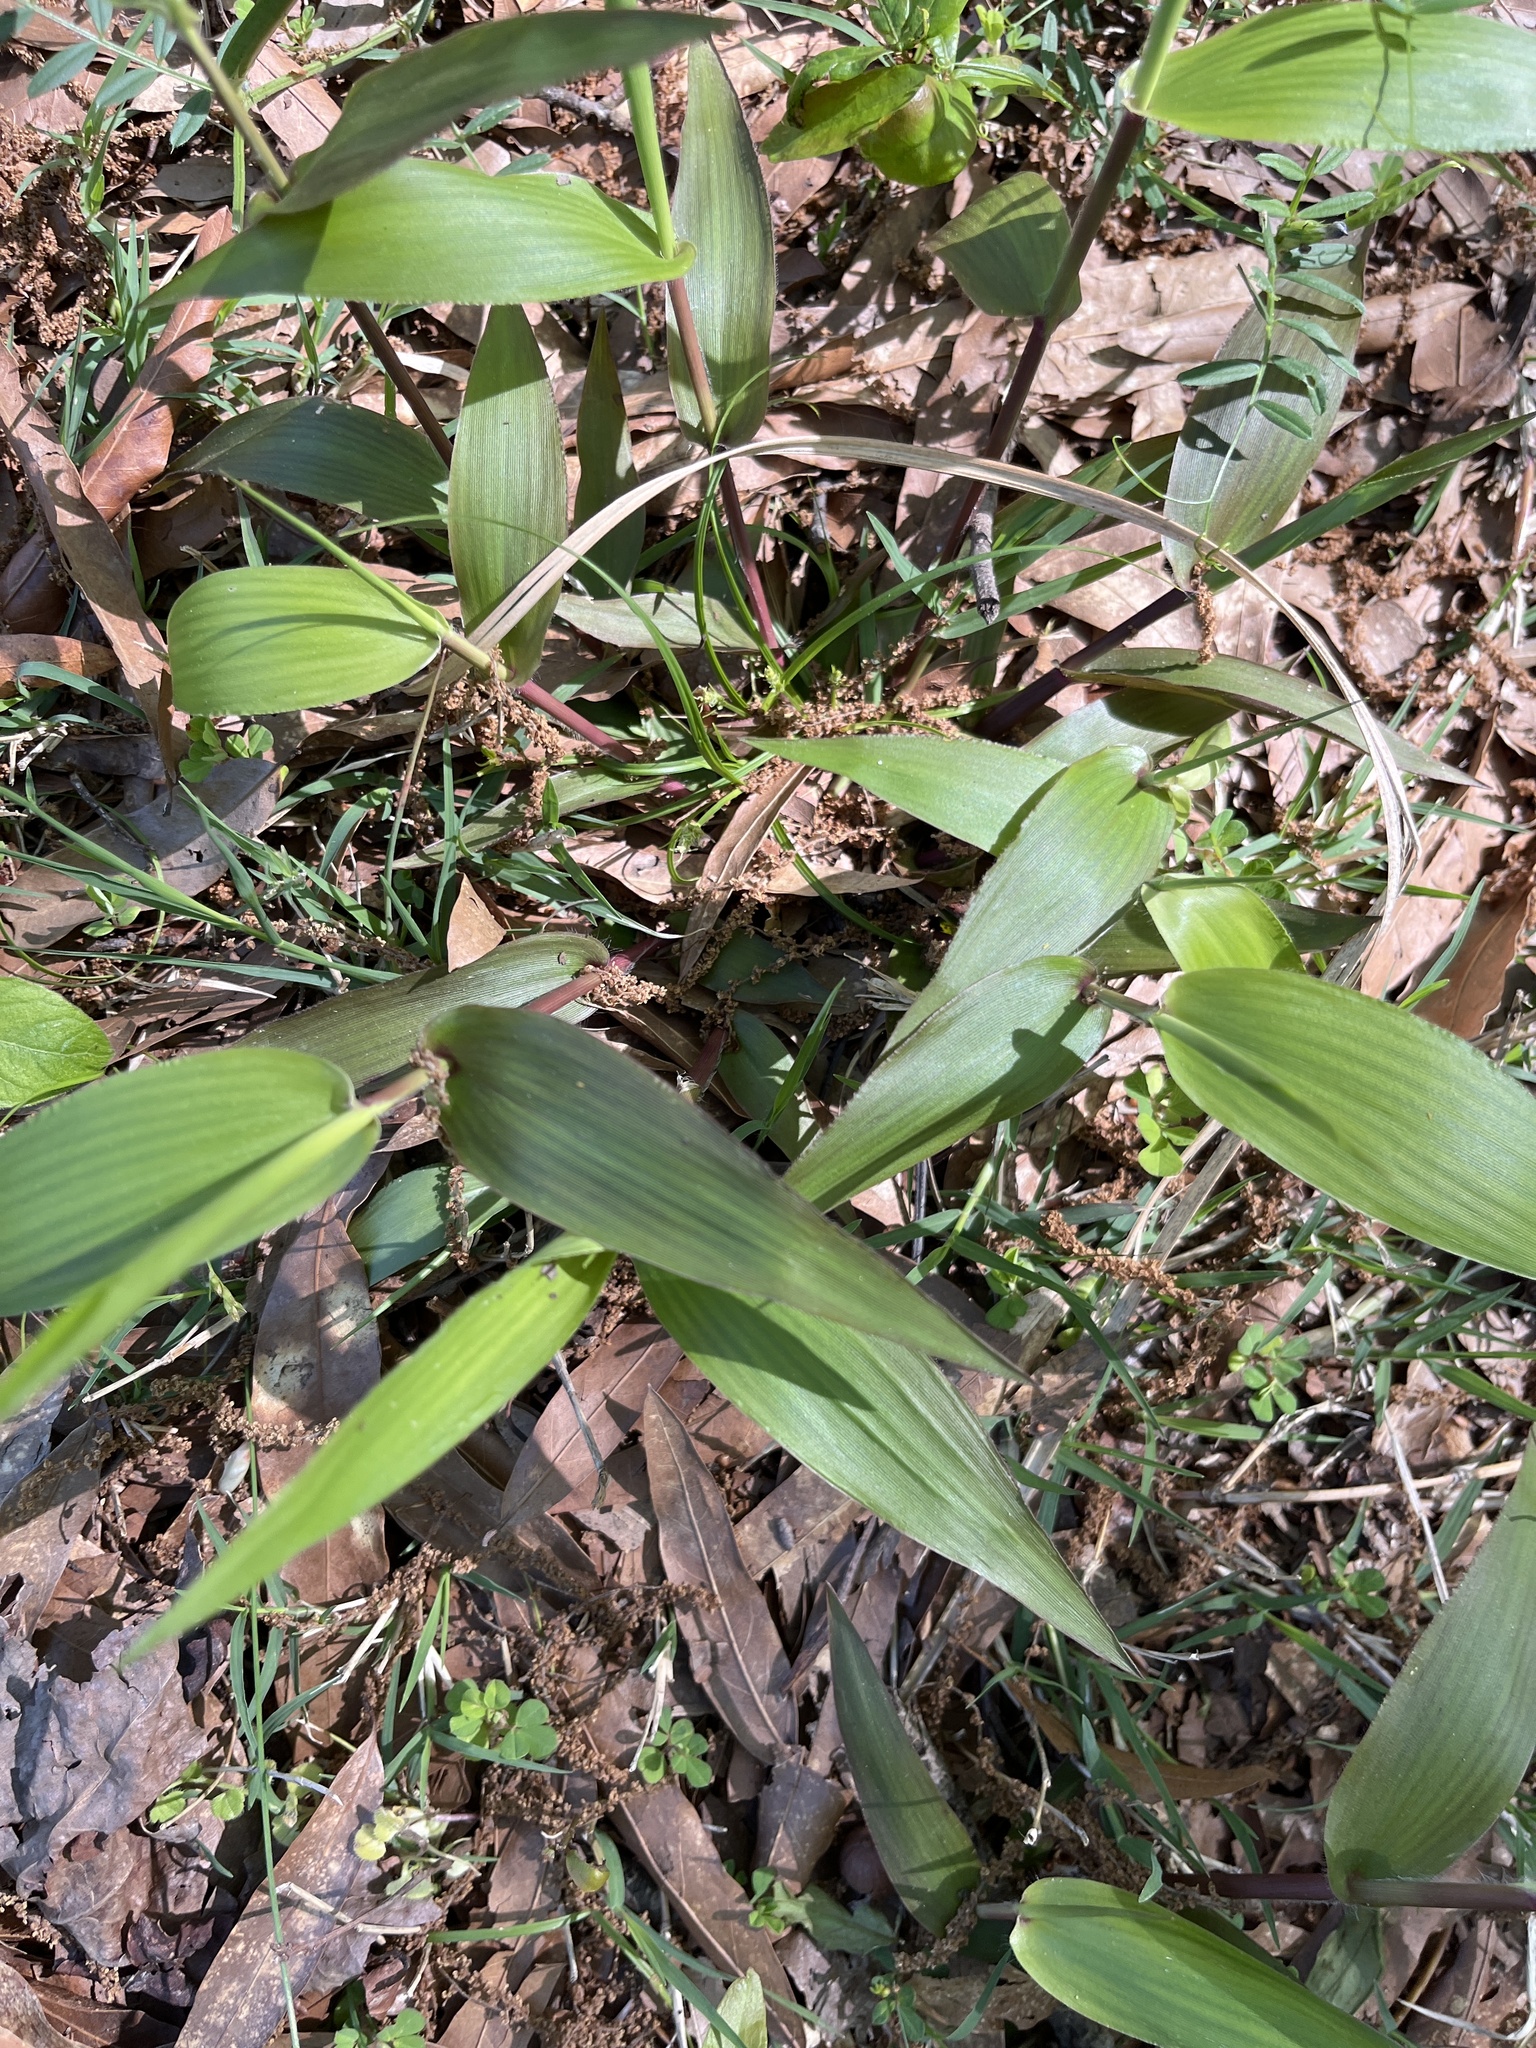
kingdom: Plantae
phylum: Tracheophyta
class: Liliopsida
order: Poales
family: Poaceae
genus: Dichanthelium
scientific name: Dichanthelium commutatum
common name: Variable witchgrass
